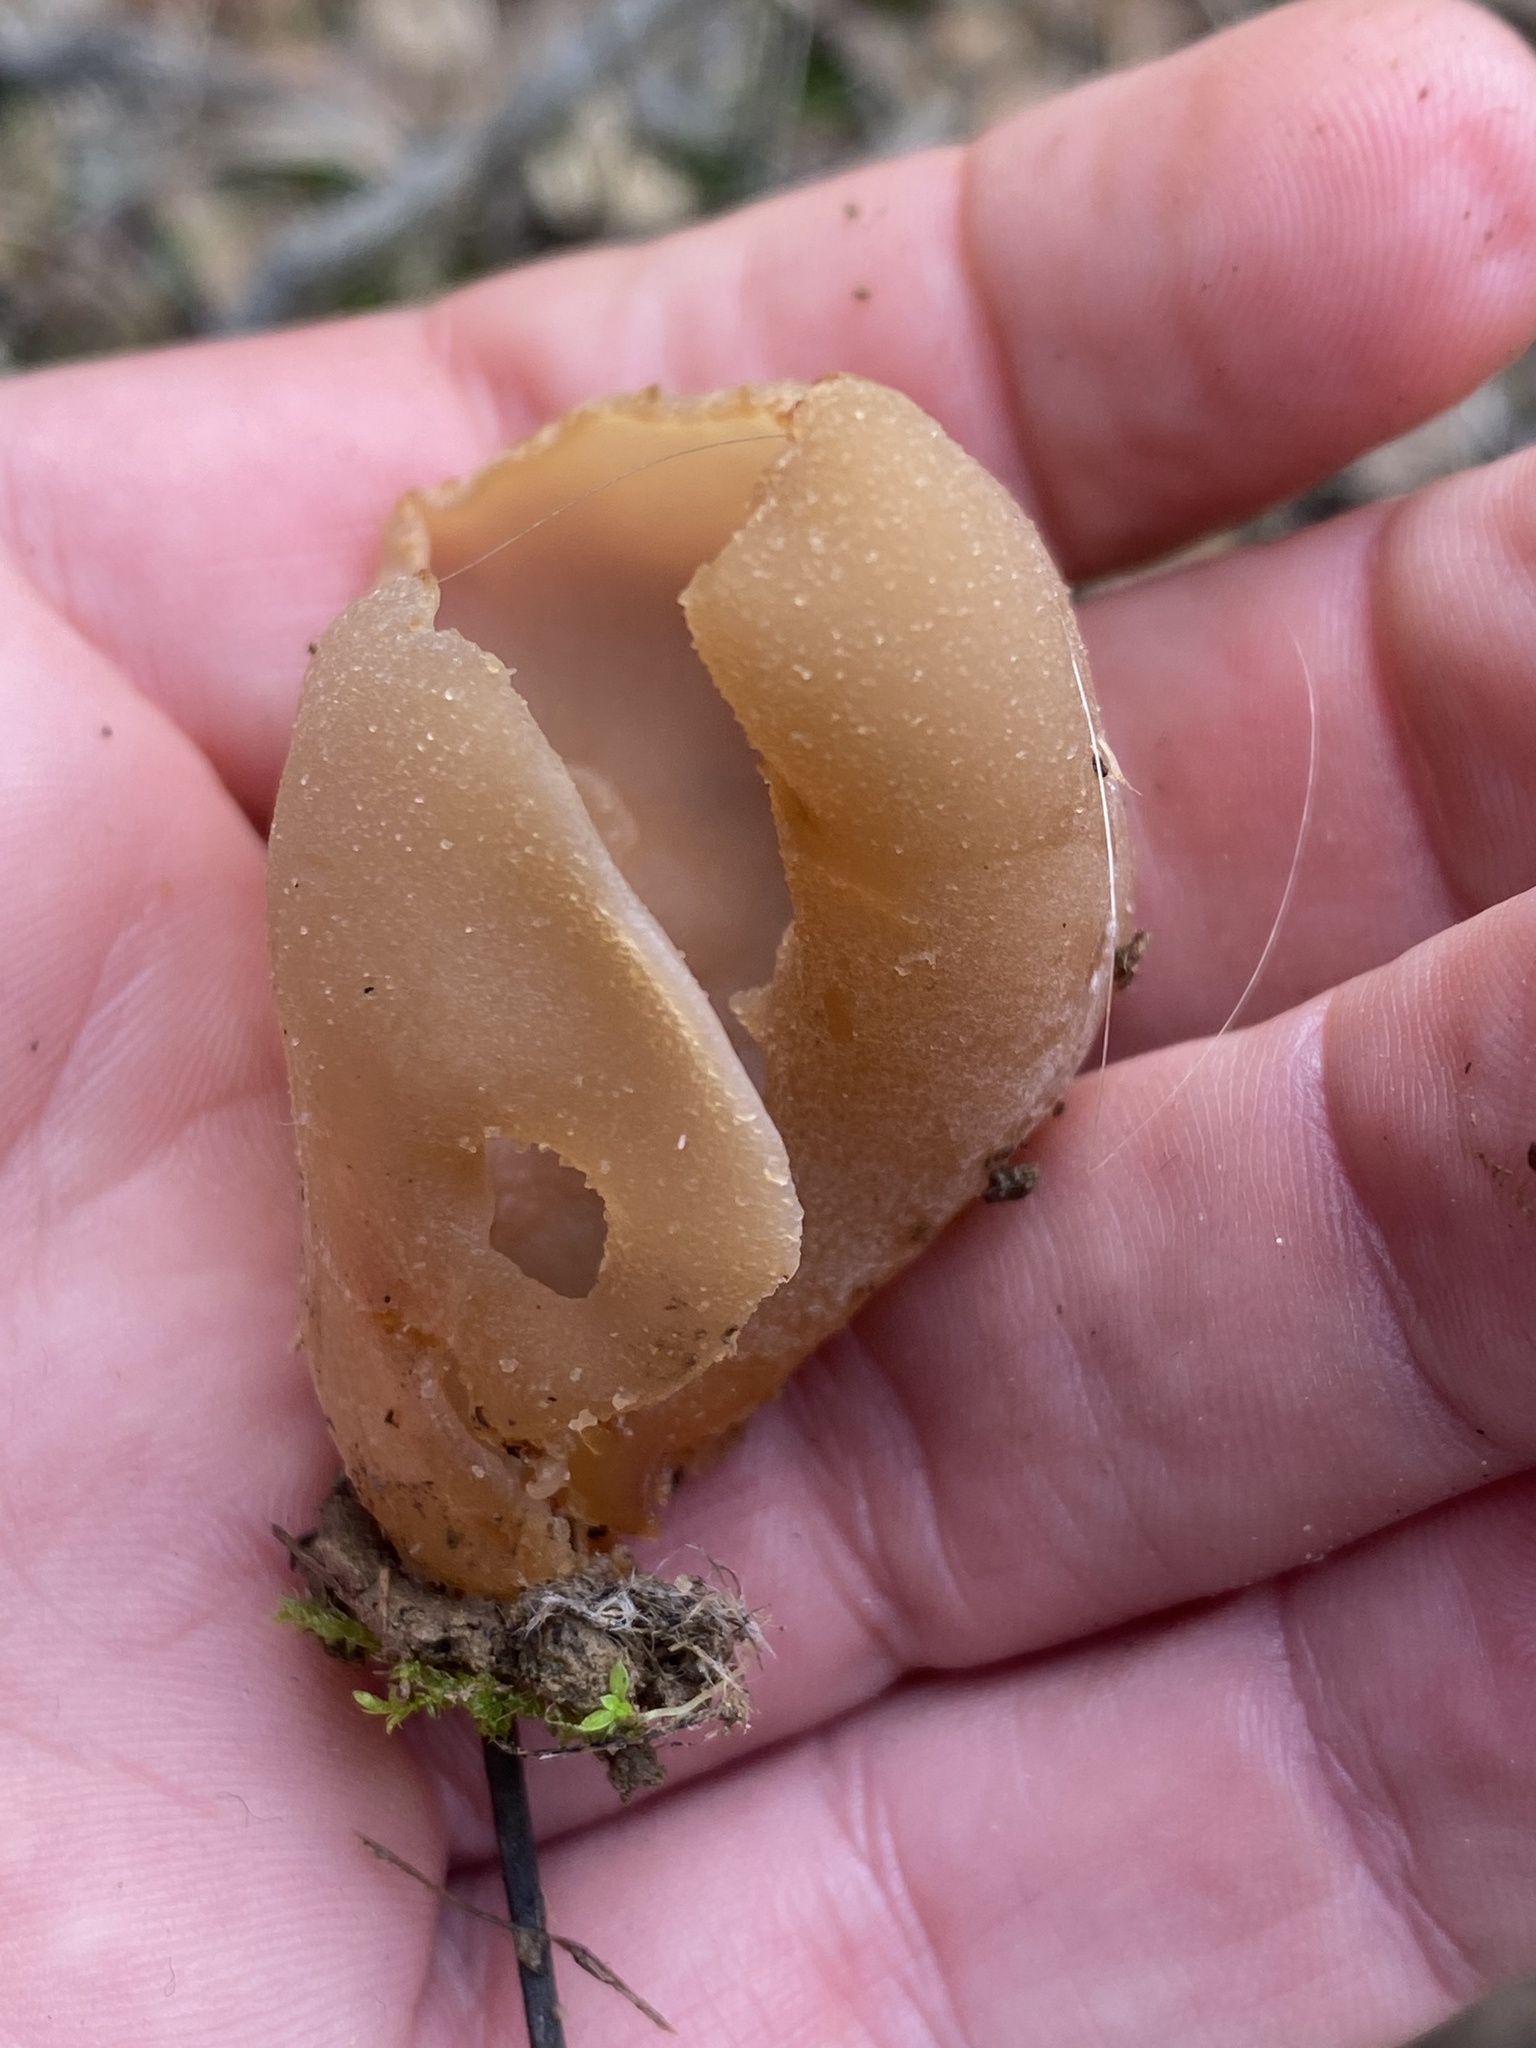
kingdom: Fungi
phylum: Ascomycota
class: Pezizomycetes
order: Pezizales
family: Pezizaceae
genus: Peziza
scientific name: Peziza varia
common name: Layered cup
